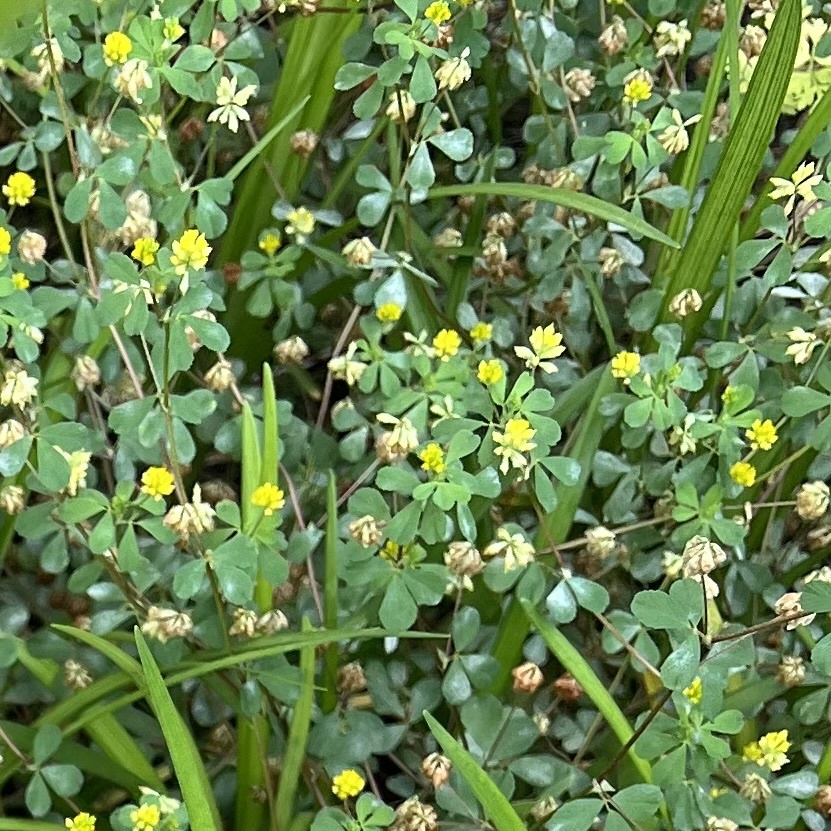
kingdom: Plantae
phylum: Tracheophyta
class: Magnoliopsida
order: Fabales
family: Fabaceae
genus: Trifolium
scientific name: Trifolium dubium
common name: Suckling clover
